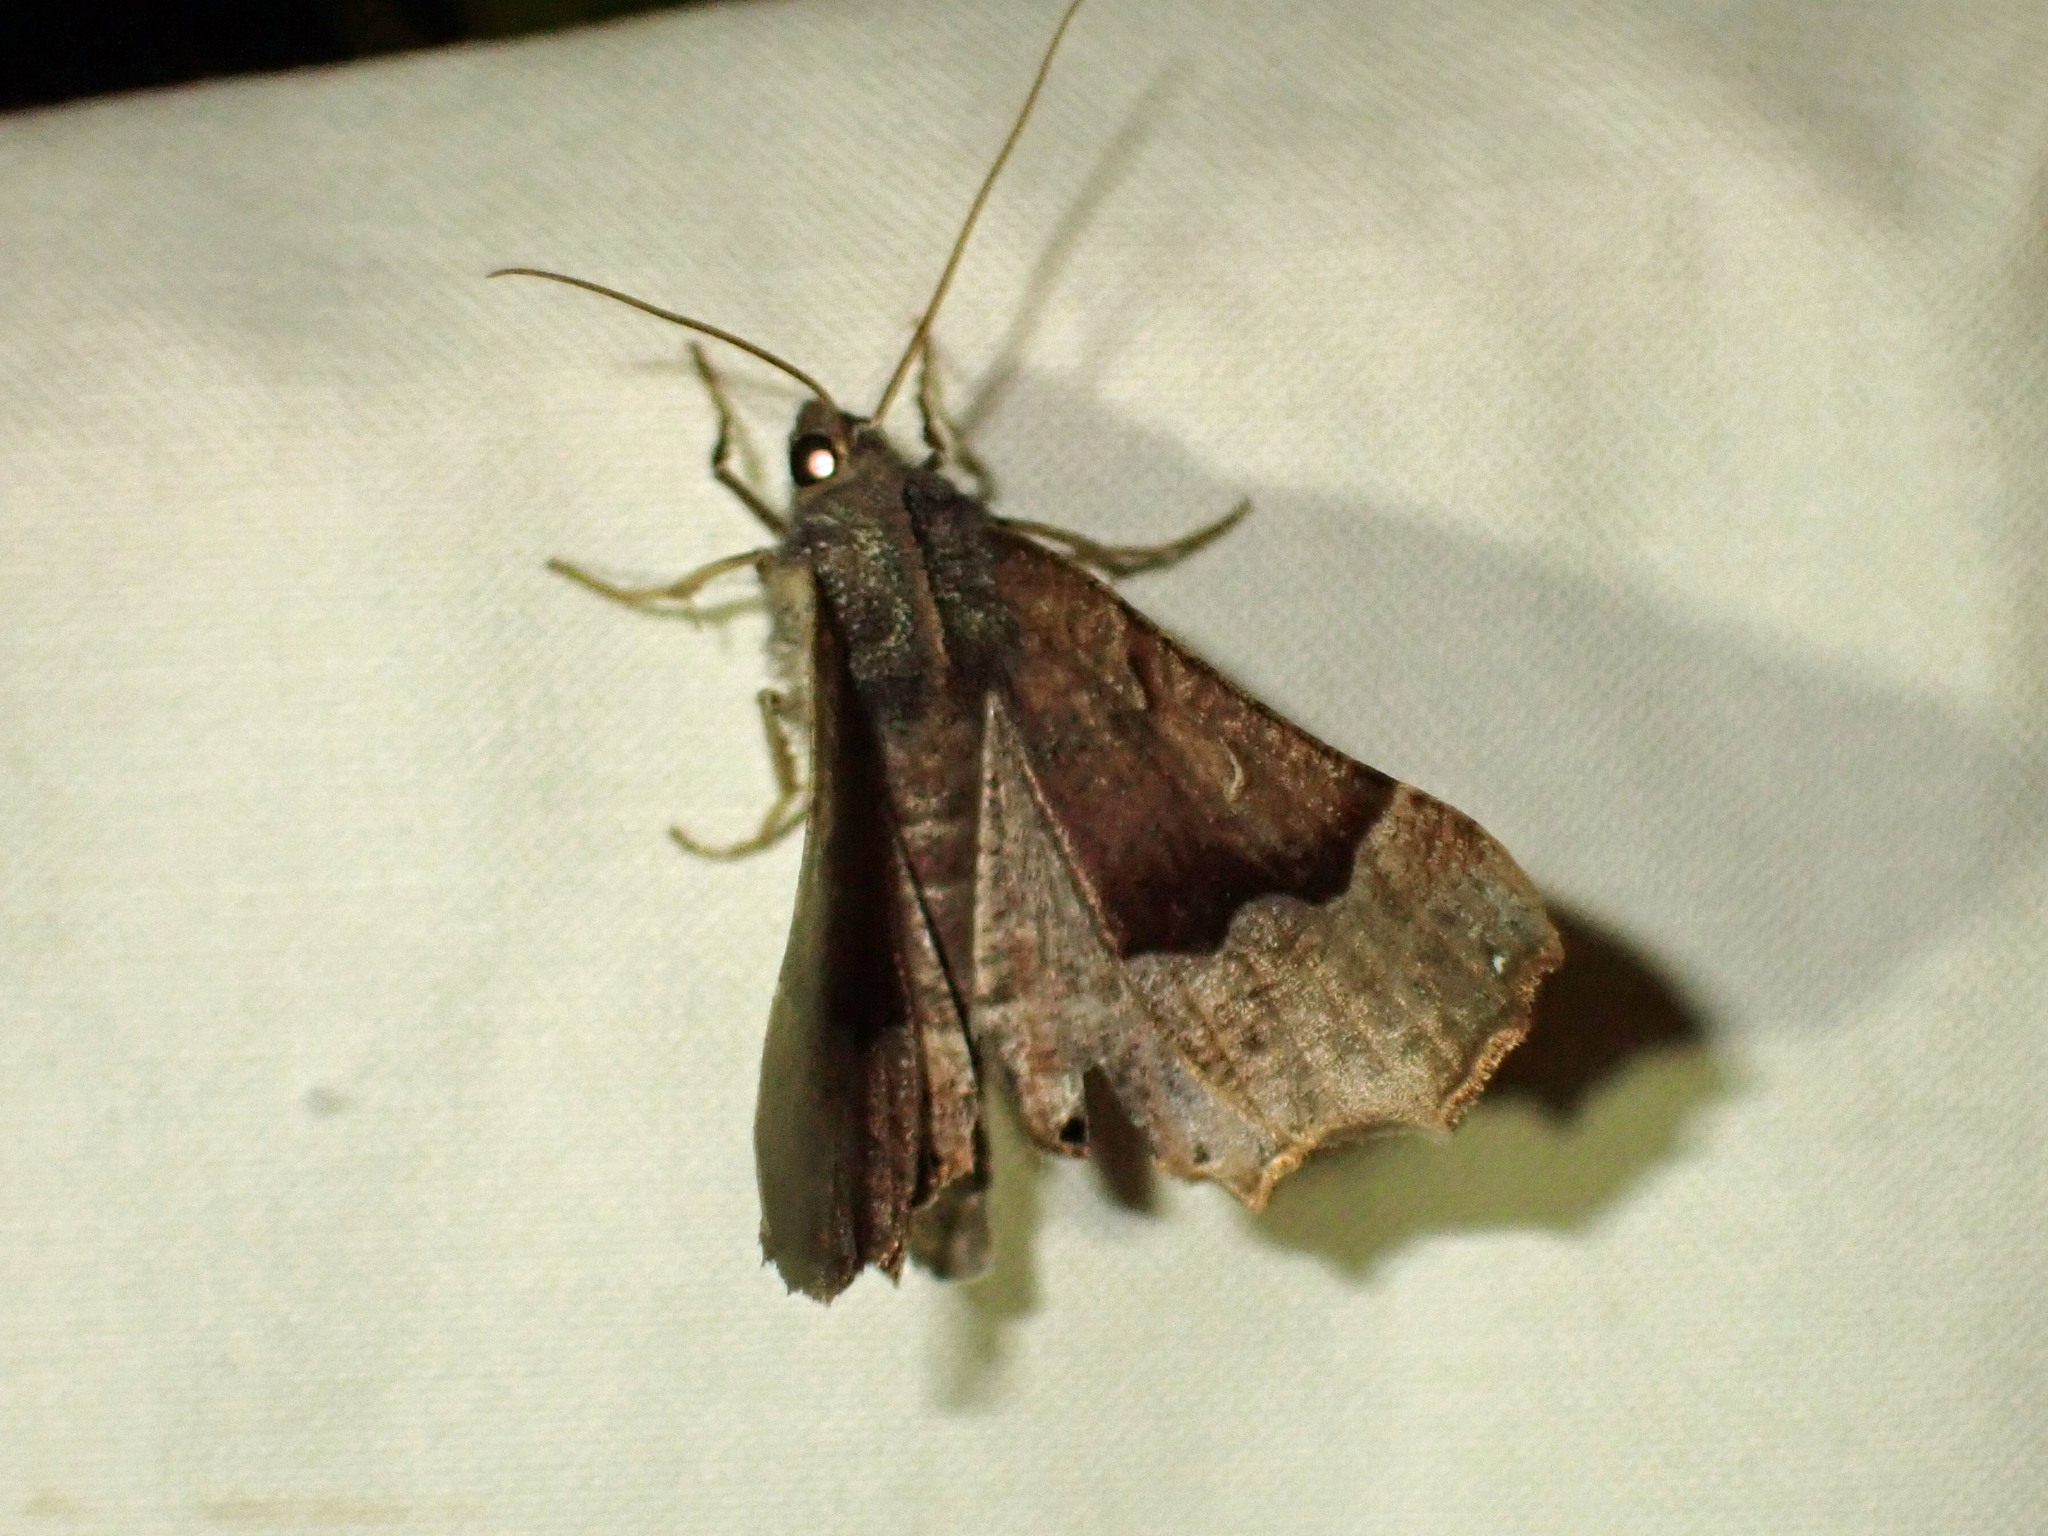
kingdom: Animalia
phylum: Arthropoda
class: Insecta
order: Lepidoptera
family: Geometridae
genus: Pero
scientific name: Pero honestaria
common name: Honest pero
